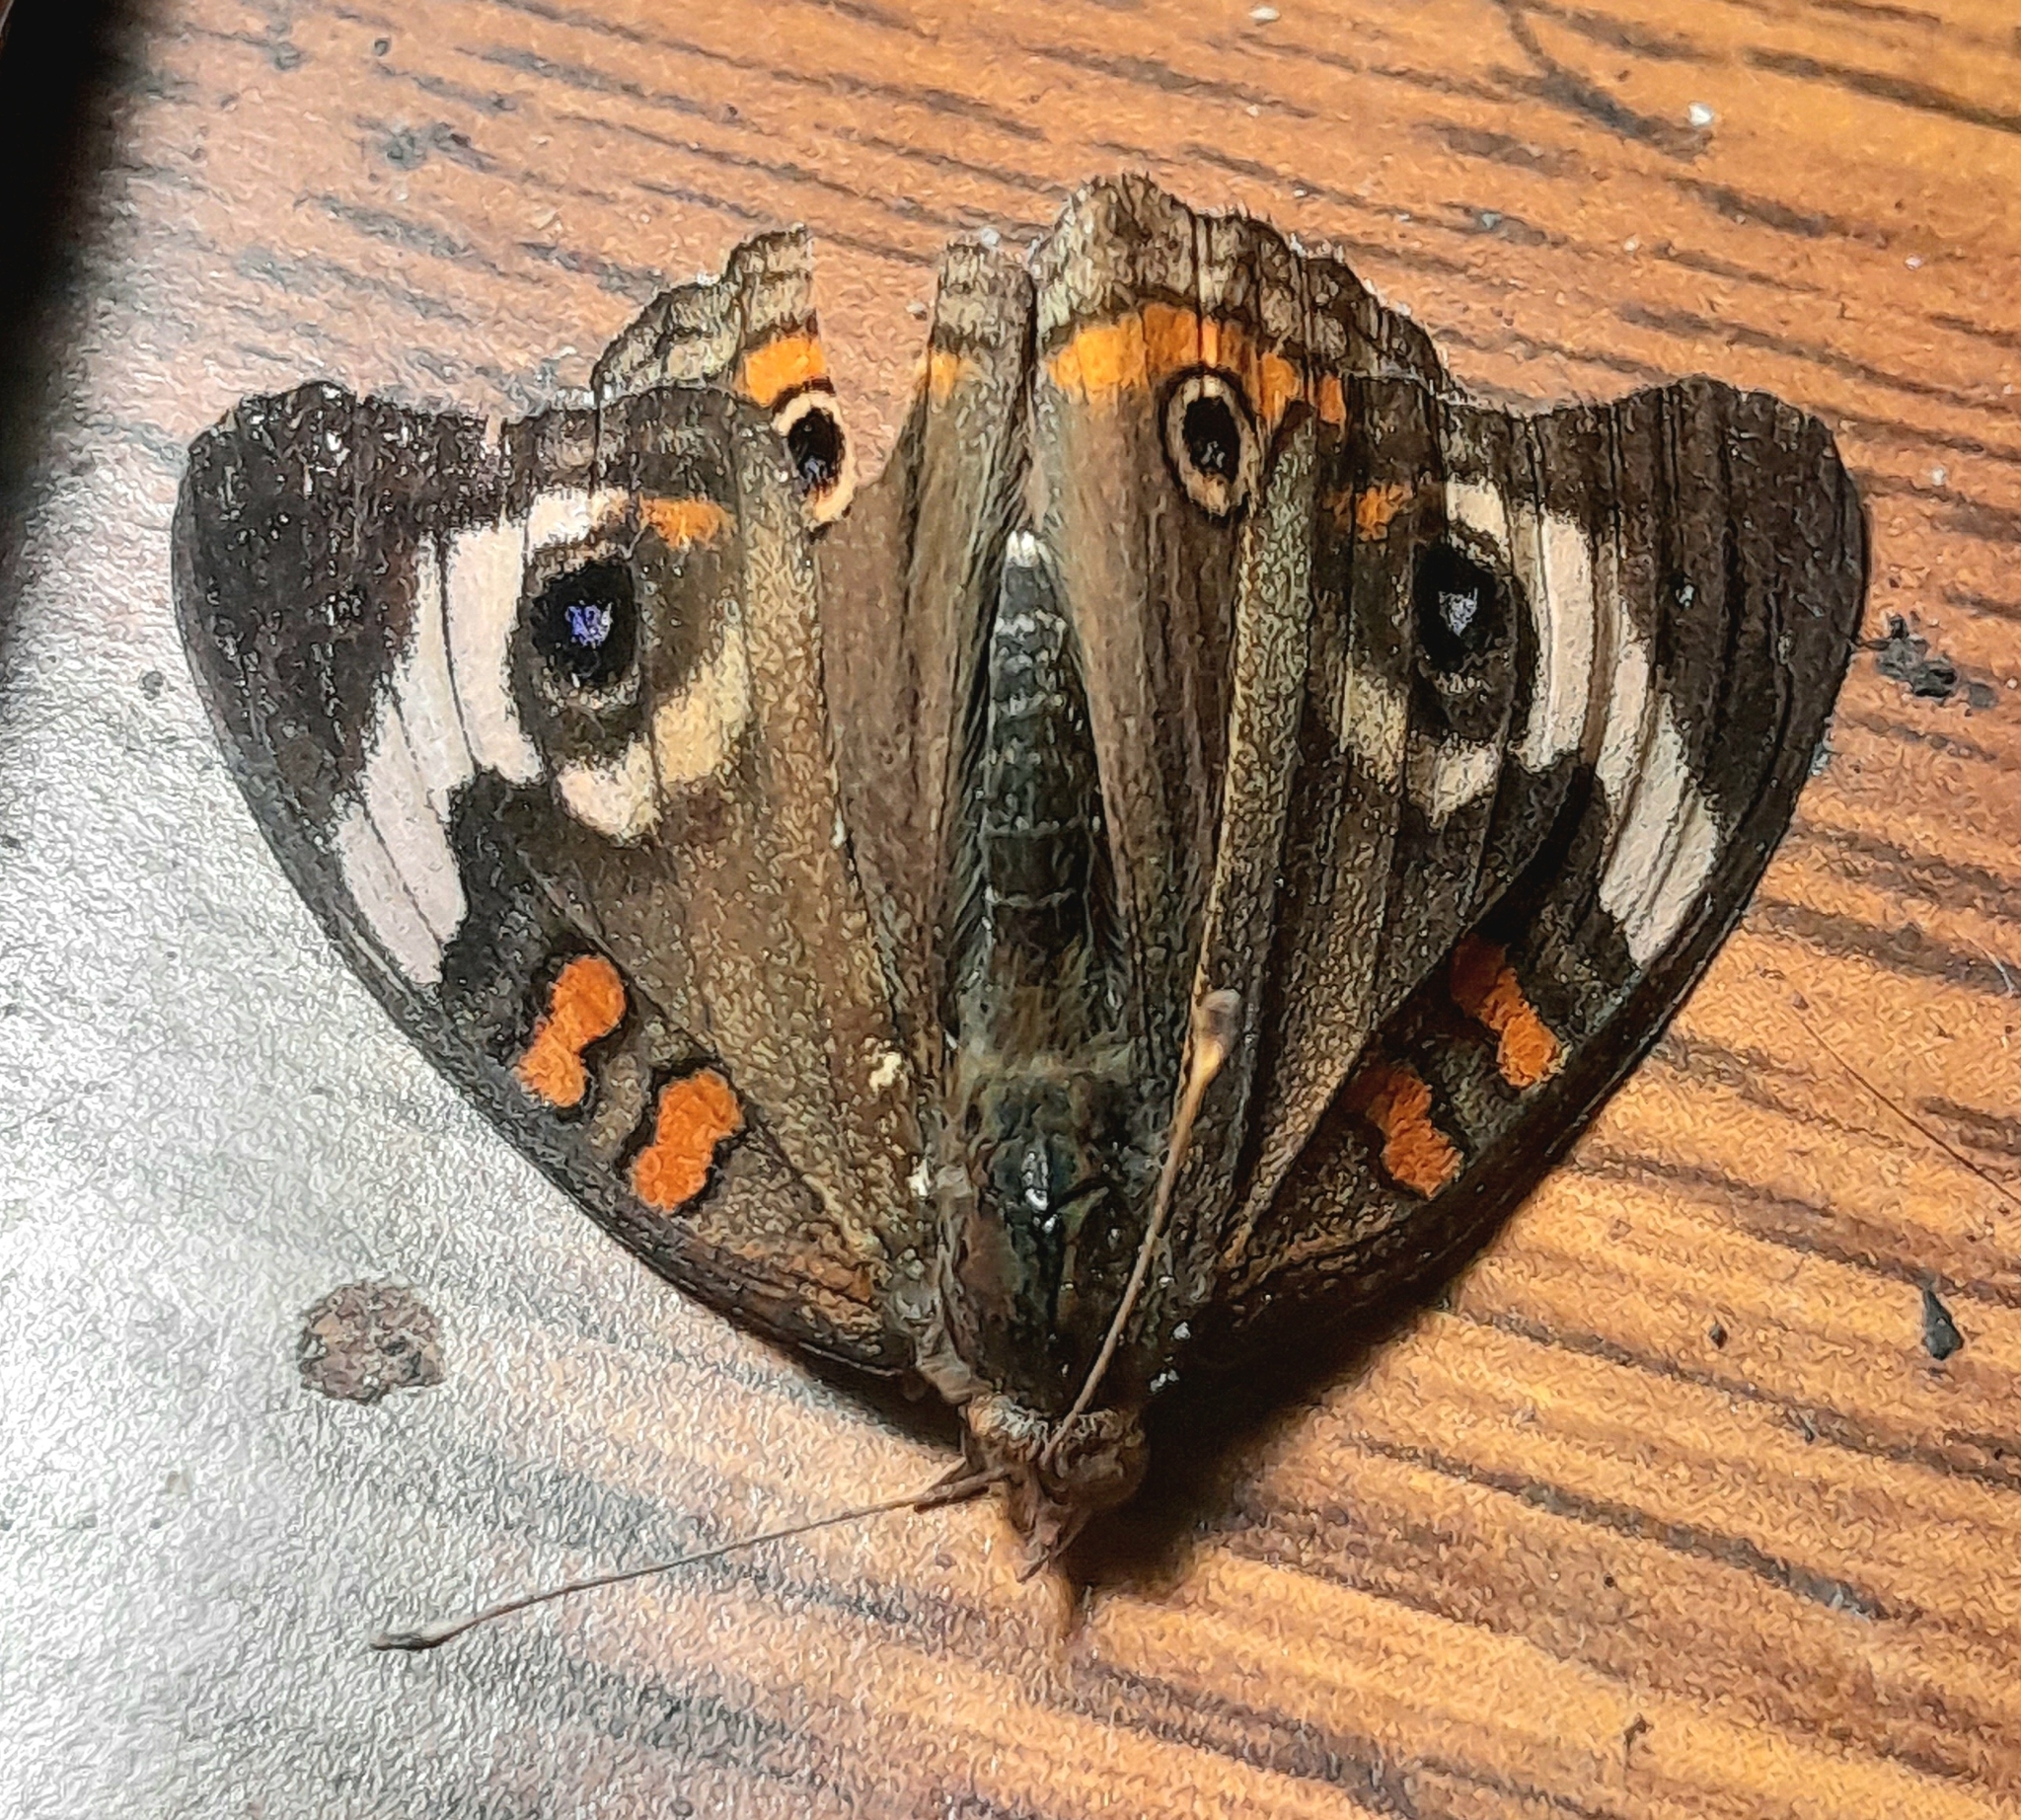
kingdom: Animalia
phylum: Arthropoda
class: Insecta
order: Lepidoptera
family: Nymphalidae
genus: Junonia
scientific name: Junonia coenia
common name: Common buckeye
